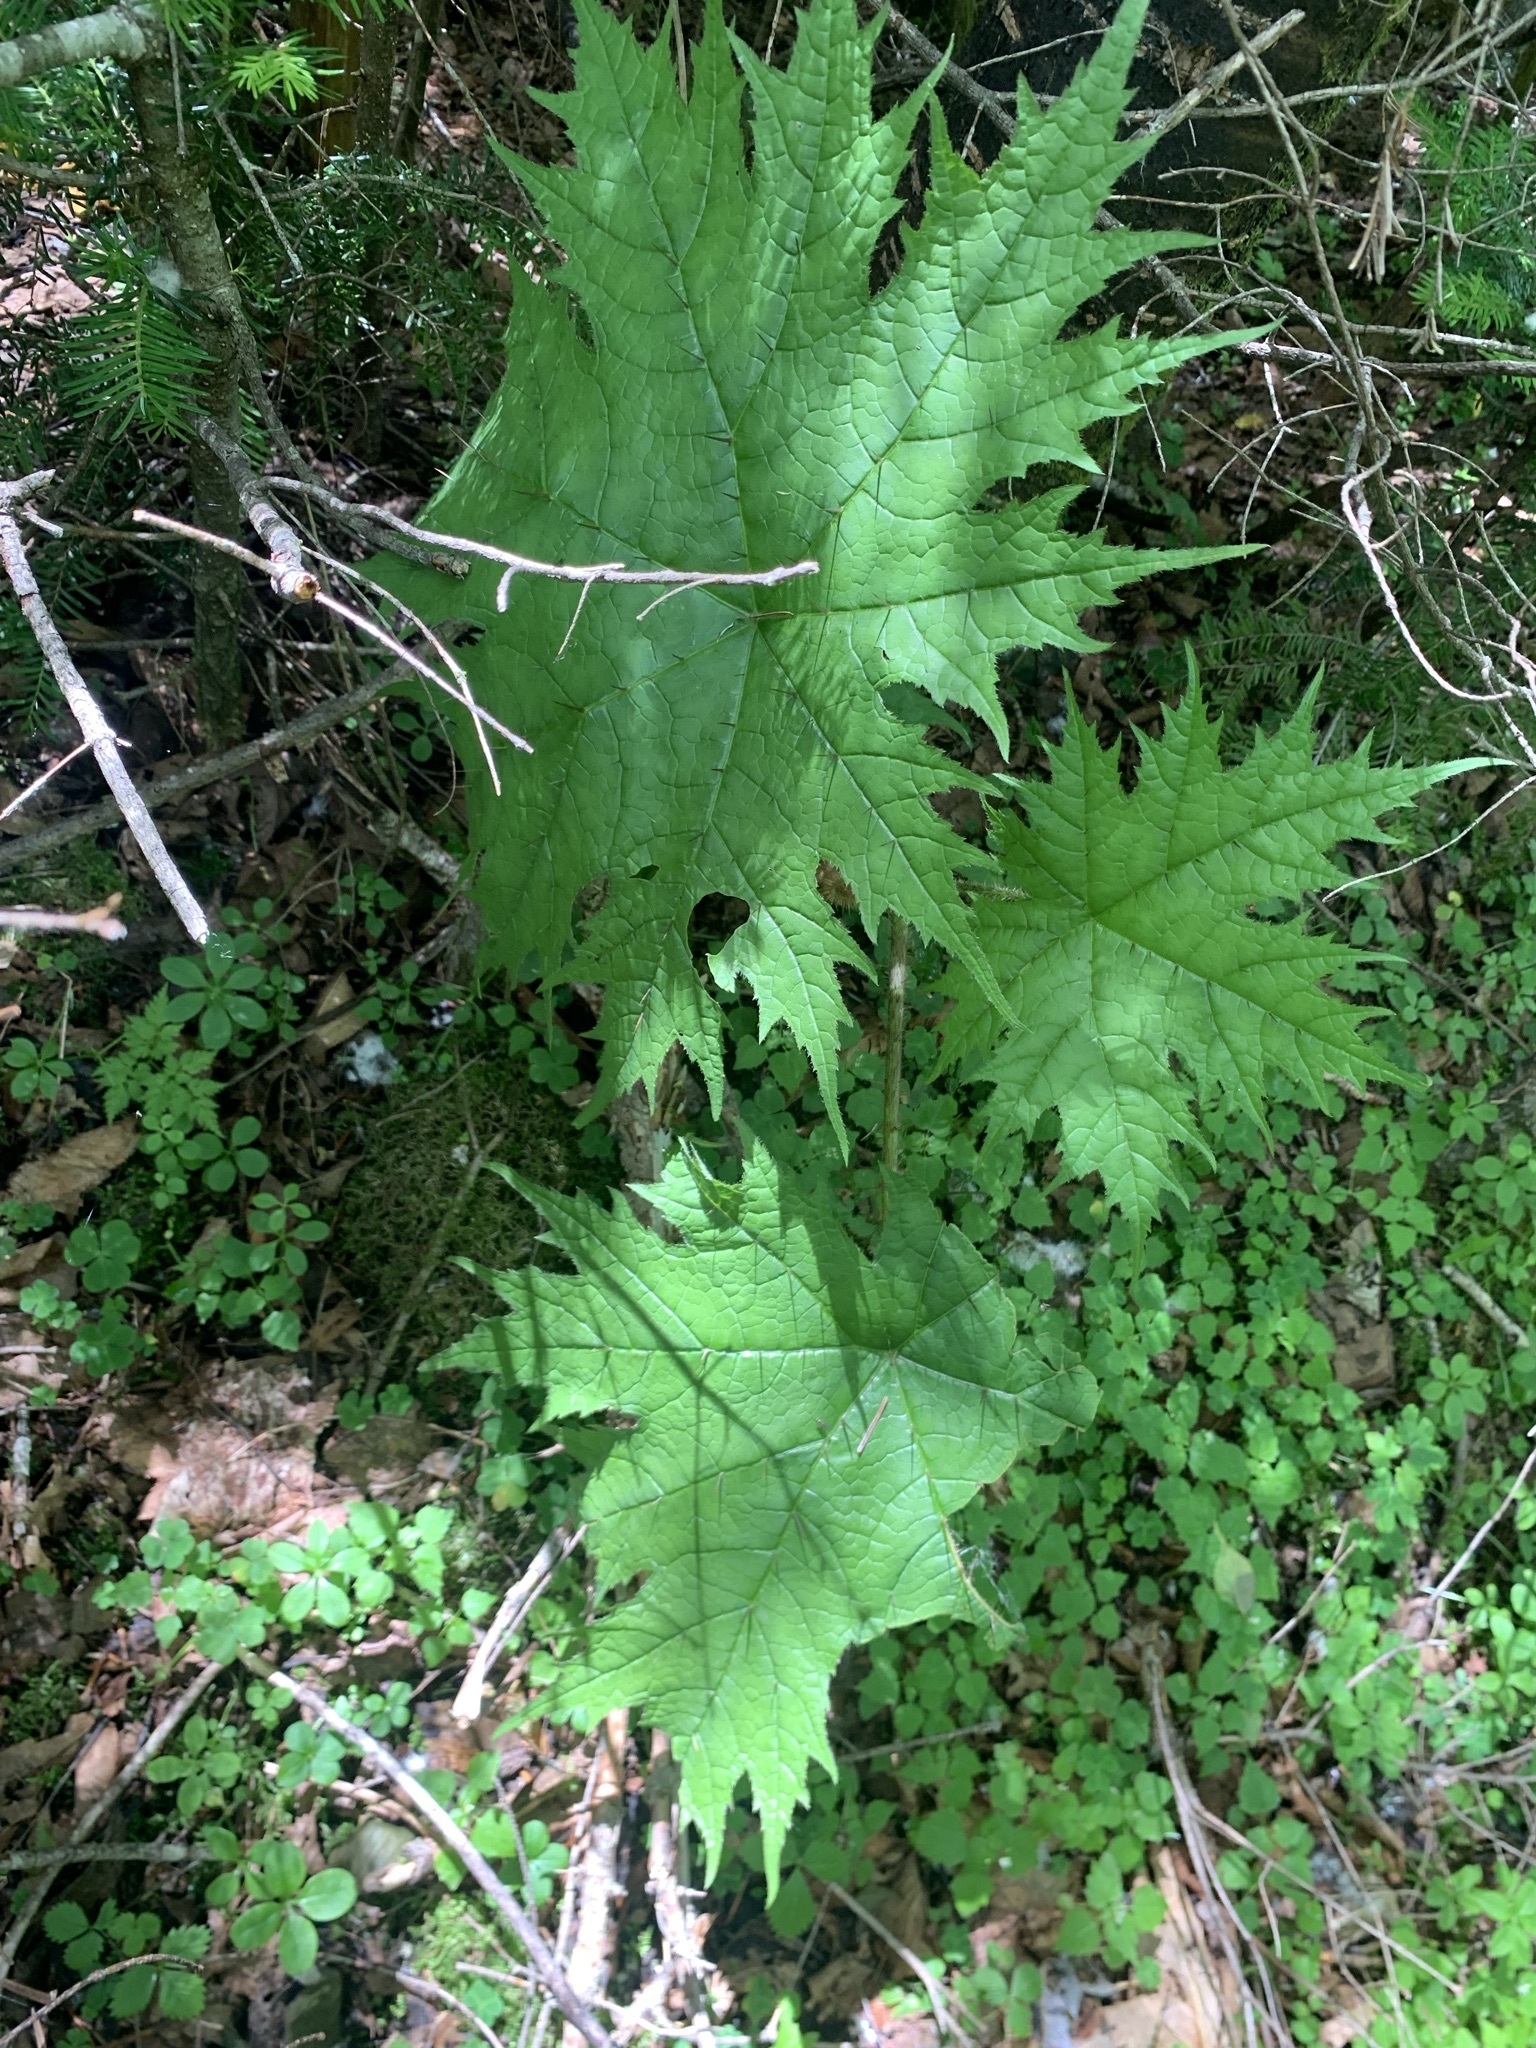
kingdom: Plantae
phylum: Tracheophyta
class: Magnoliopsida
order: Apiales
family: Araliaceae
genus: Oplopanax
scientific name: Oplopanax japonicus
